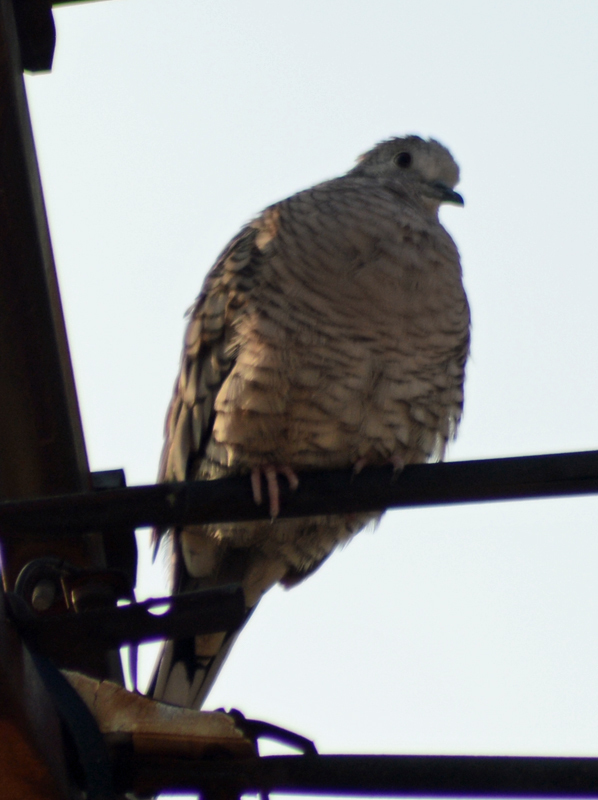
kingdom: Animalia
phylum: Chordata
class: Aves
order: Columbiformes
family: Columbidae
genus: Columbina
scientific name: Columbina inca
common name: Inca dove
